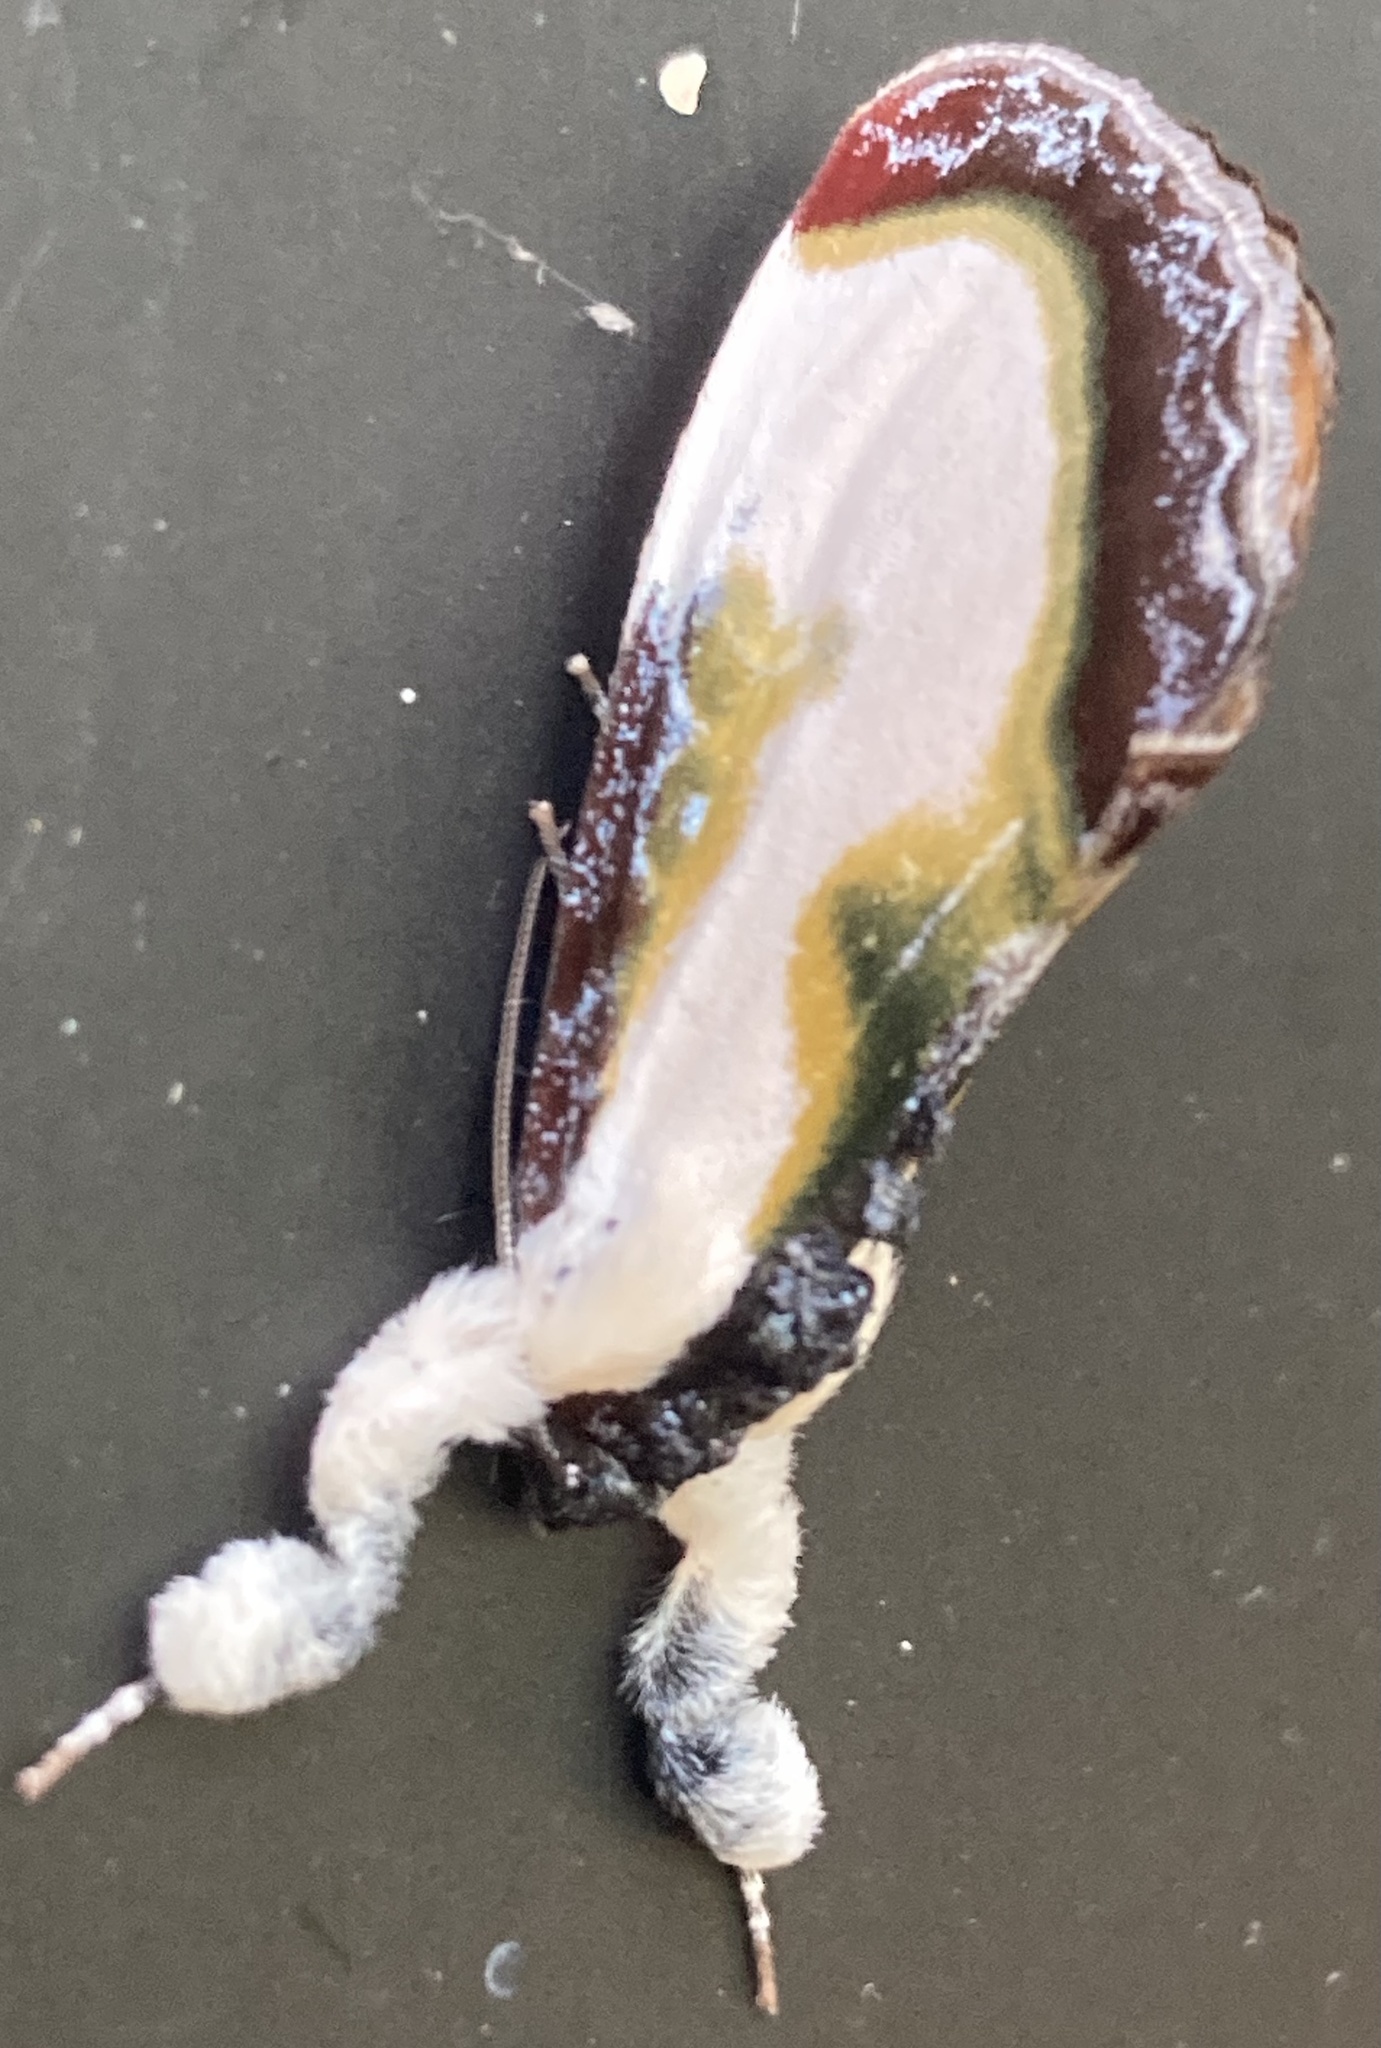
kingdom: Animalia
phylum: Arthropoda
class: Insecta
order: Lepidoptera
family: Noctuidae
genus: Eudryas
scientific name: Eudryas grata
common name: Beautiful wood-nymph
